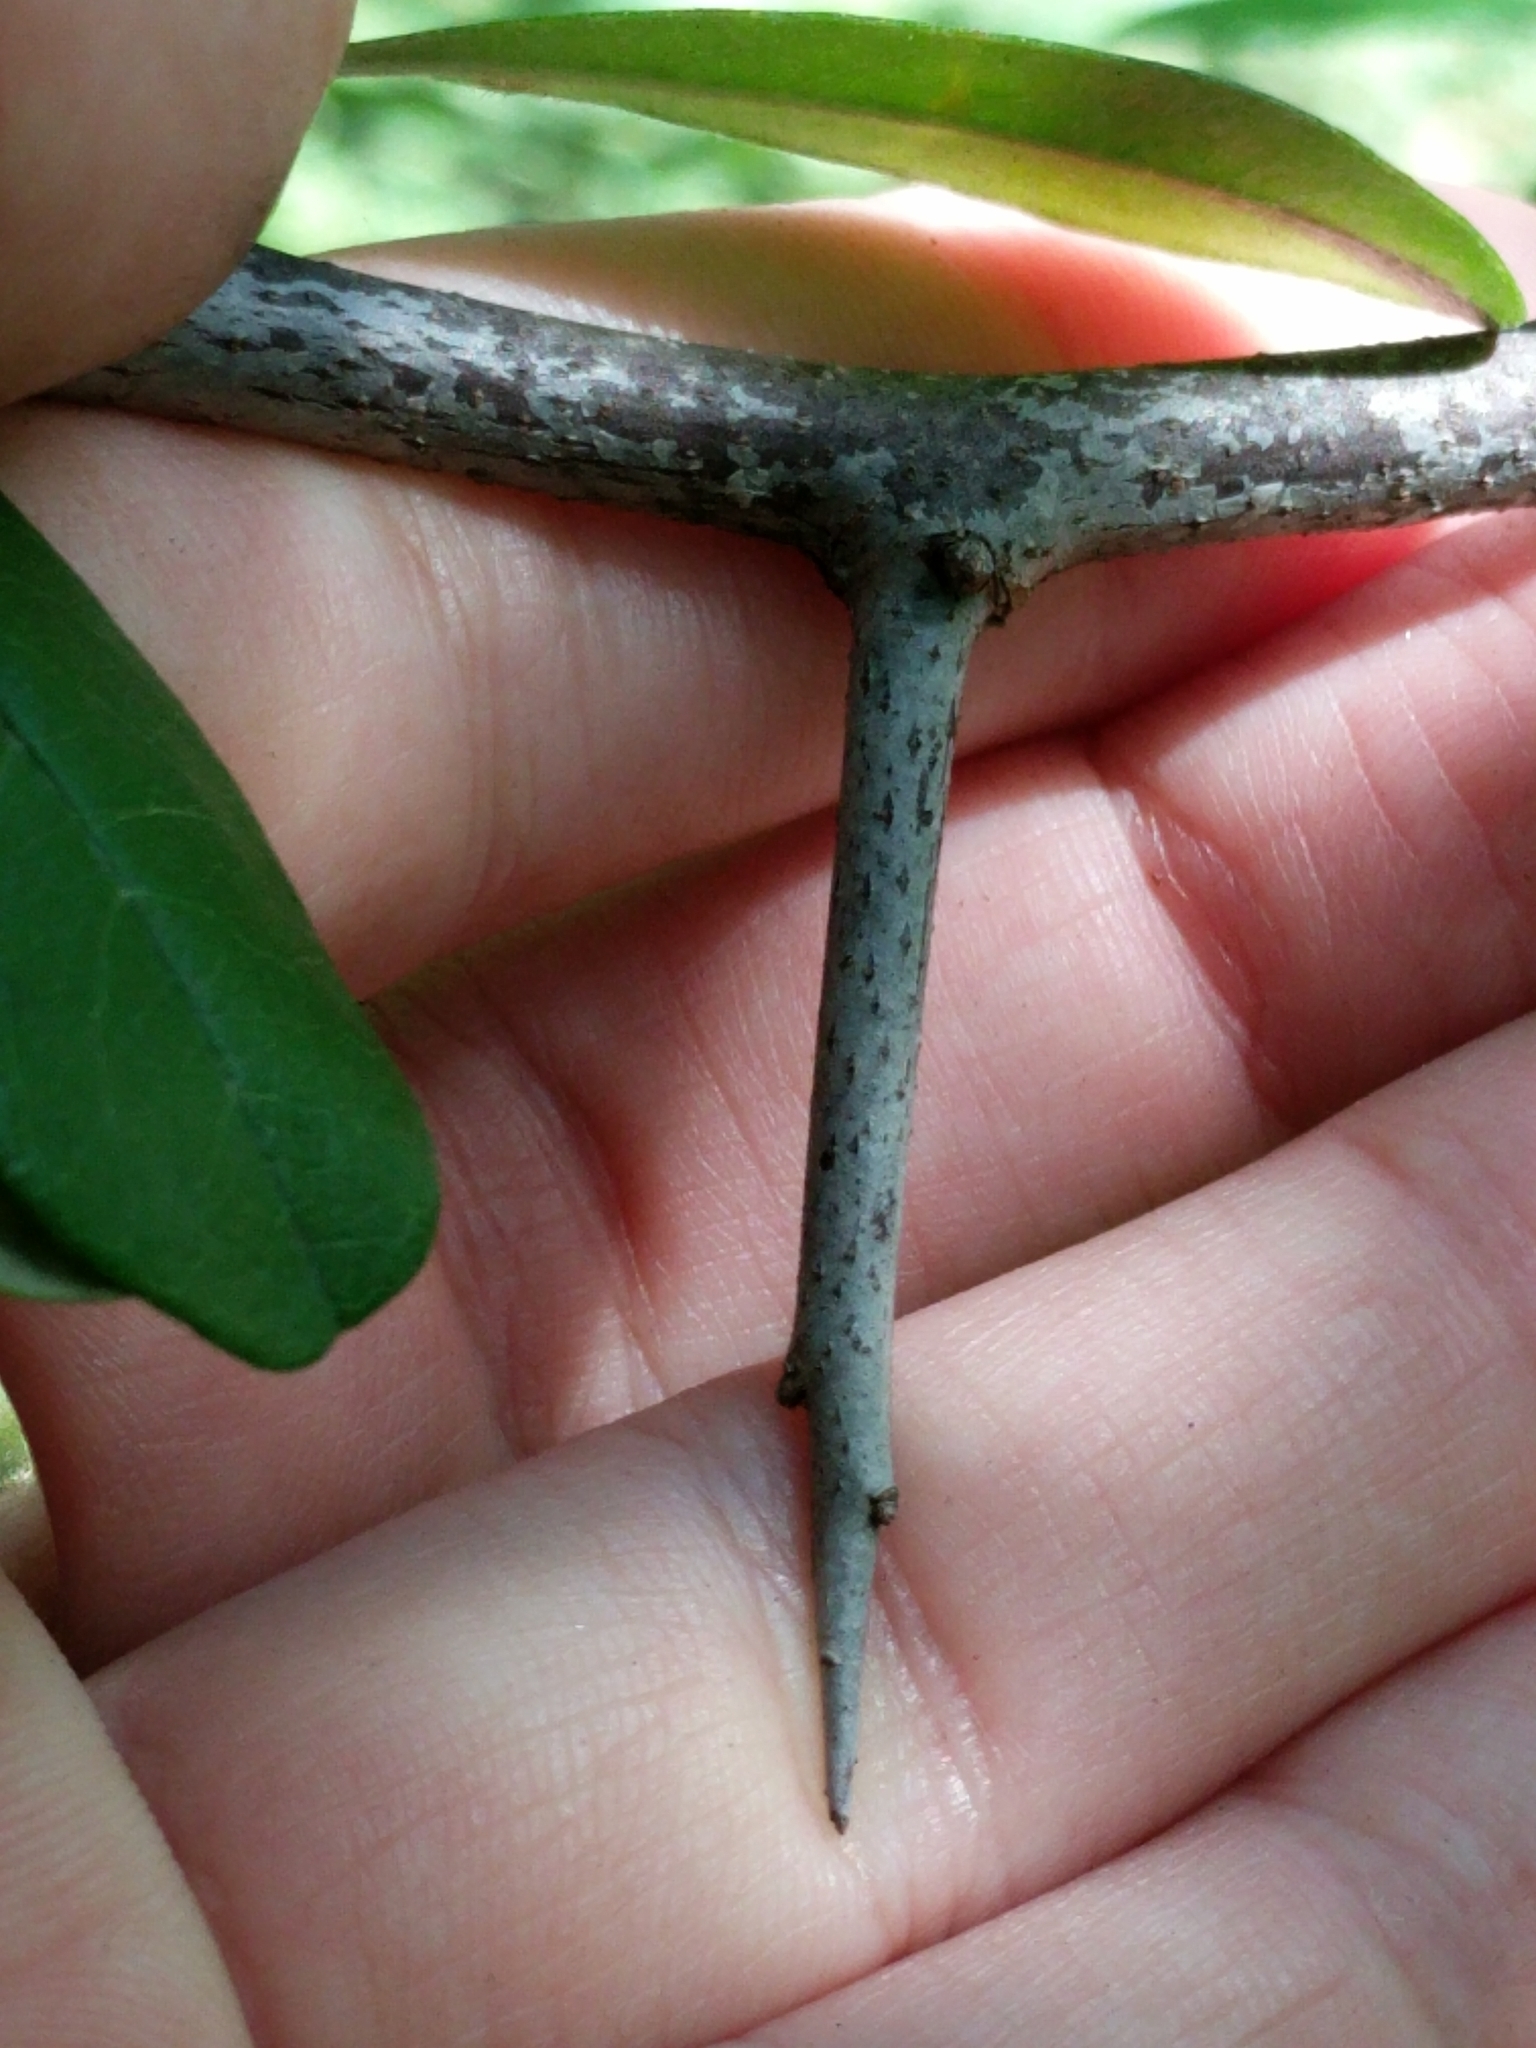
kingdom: Plantae
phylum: Tracheophyta
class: Magnoliopsida
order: Ericales
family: Sapotaceae
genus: Sideroxylon
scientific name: Sideroxylon lanuginosum
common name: Chittamwood
